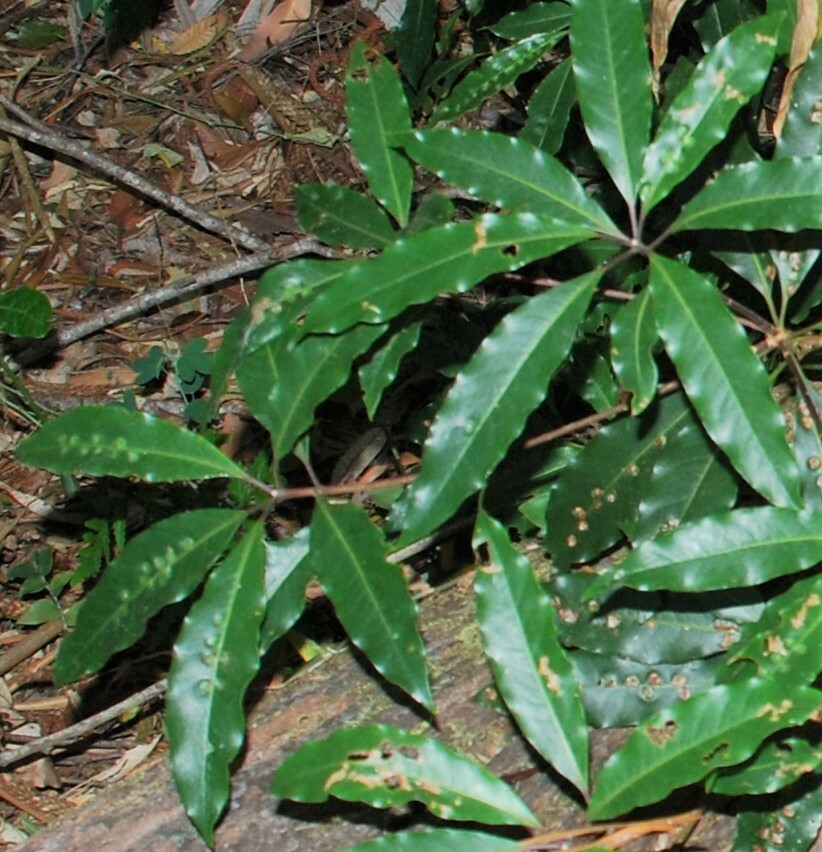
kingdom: Plantae
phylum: Tracheophyta
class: Magnoliopsida
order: Apiales
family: Pittosporaceae
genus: Pittosporum
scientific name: Pittosporum undulatum
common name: Australian cheesewood
